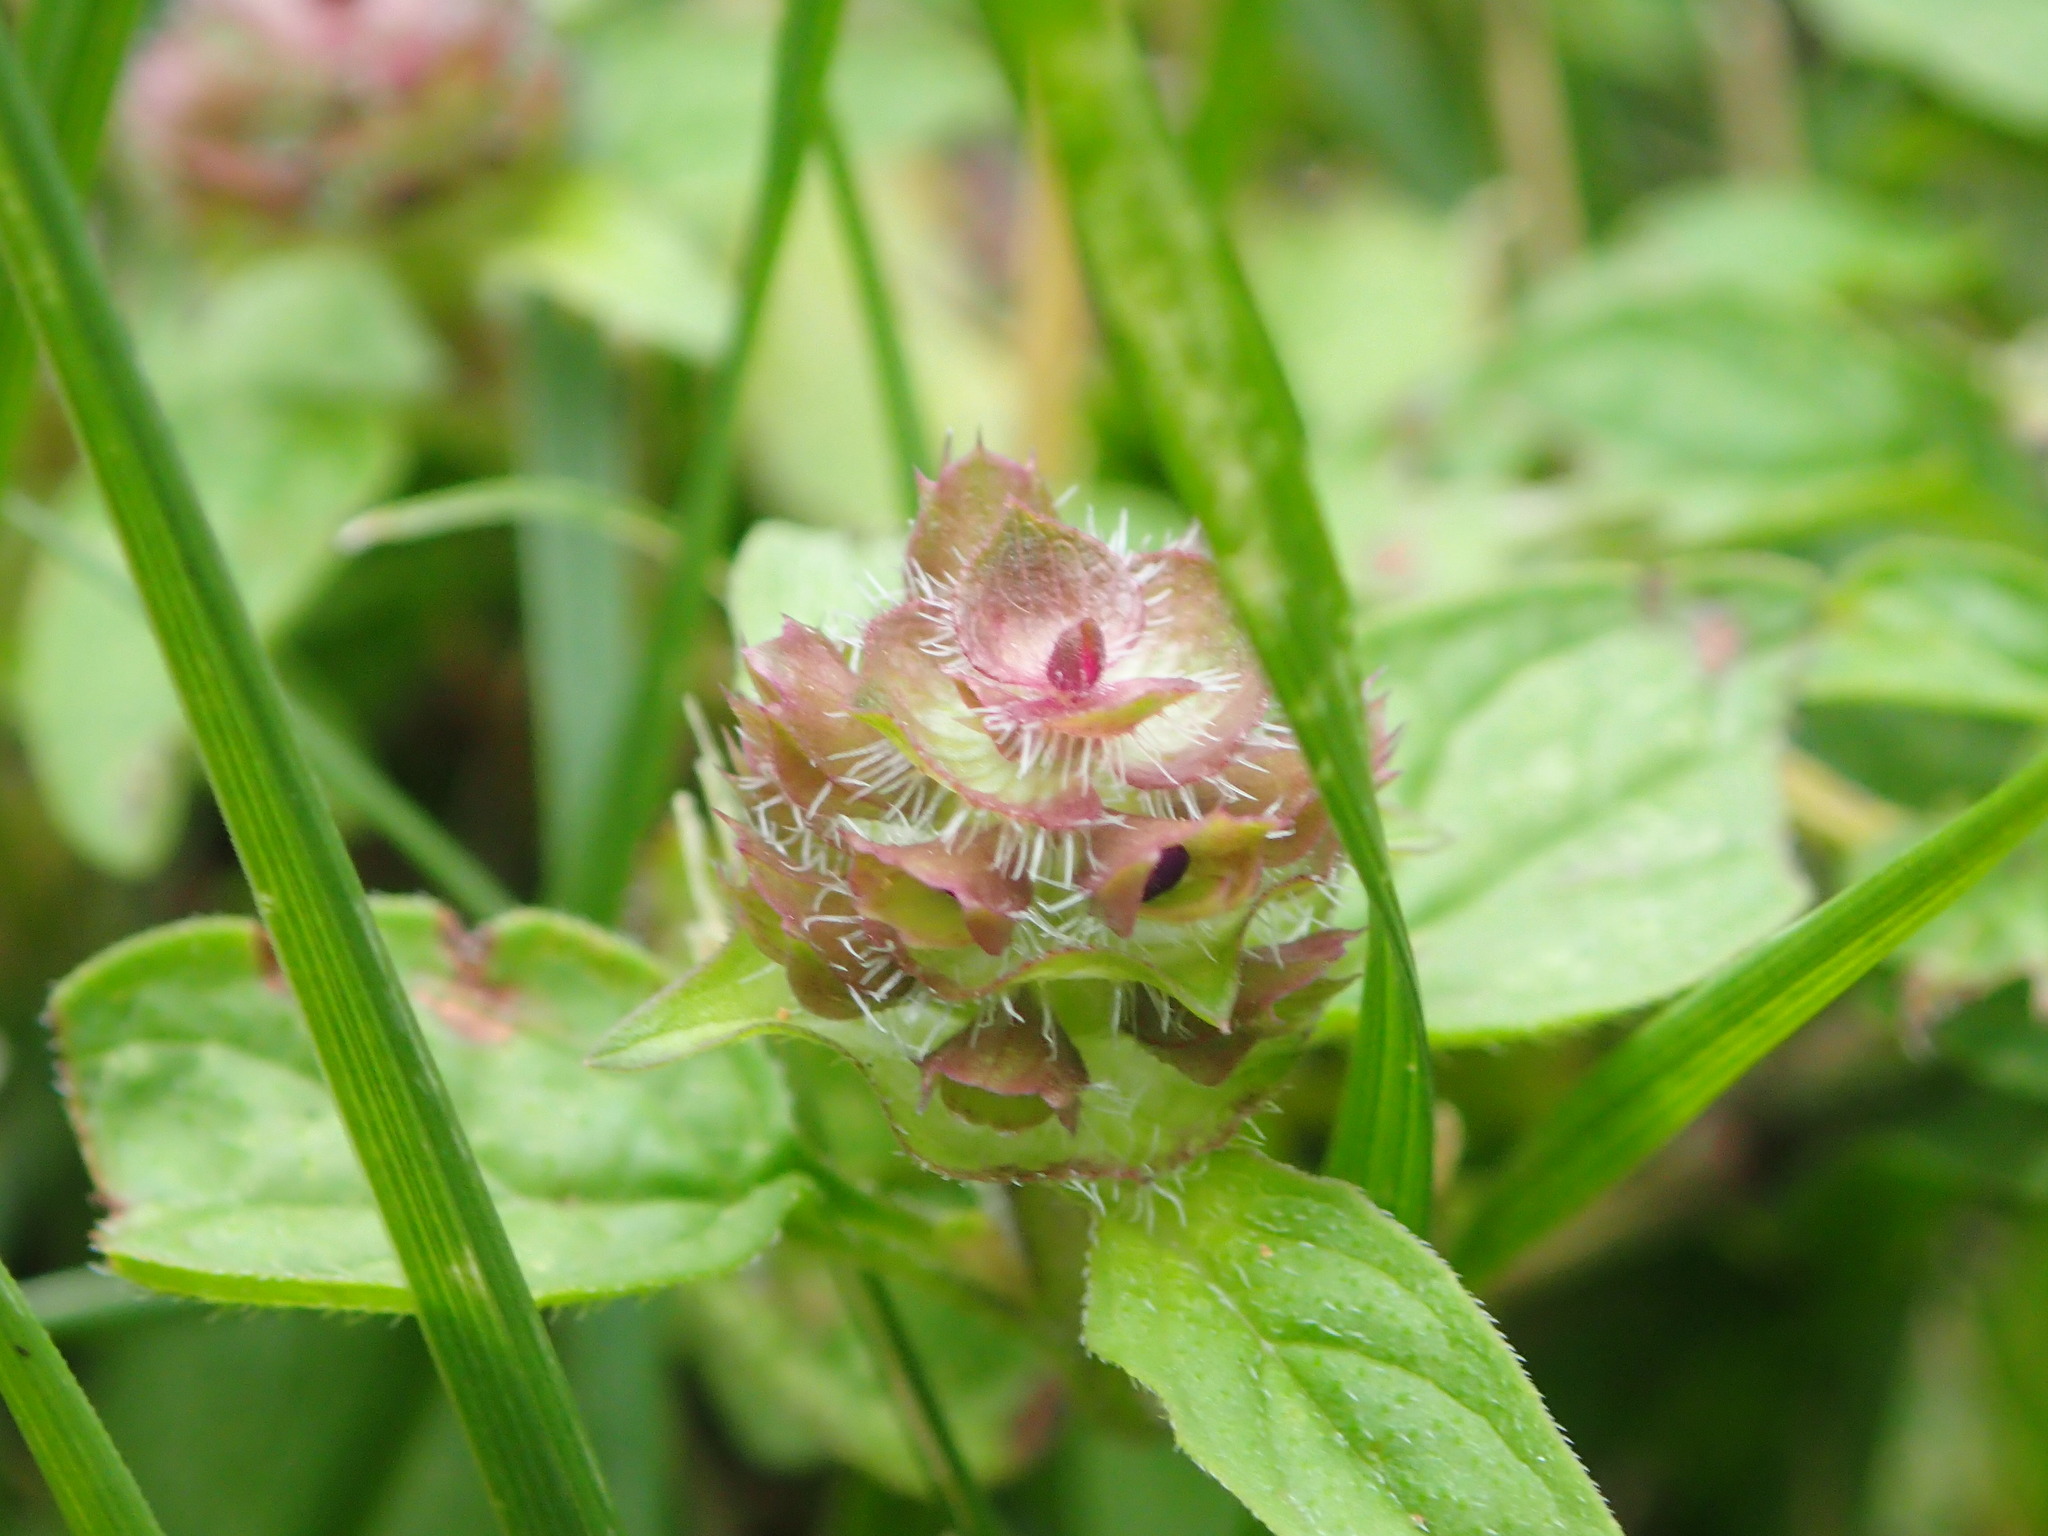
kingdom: Plantae
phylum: Tracheophyta
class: Magnoliopsida
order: Lamiales
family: Lamiaceae
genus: Prunella
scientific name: Prunella vulgaris
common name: Heal-all
